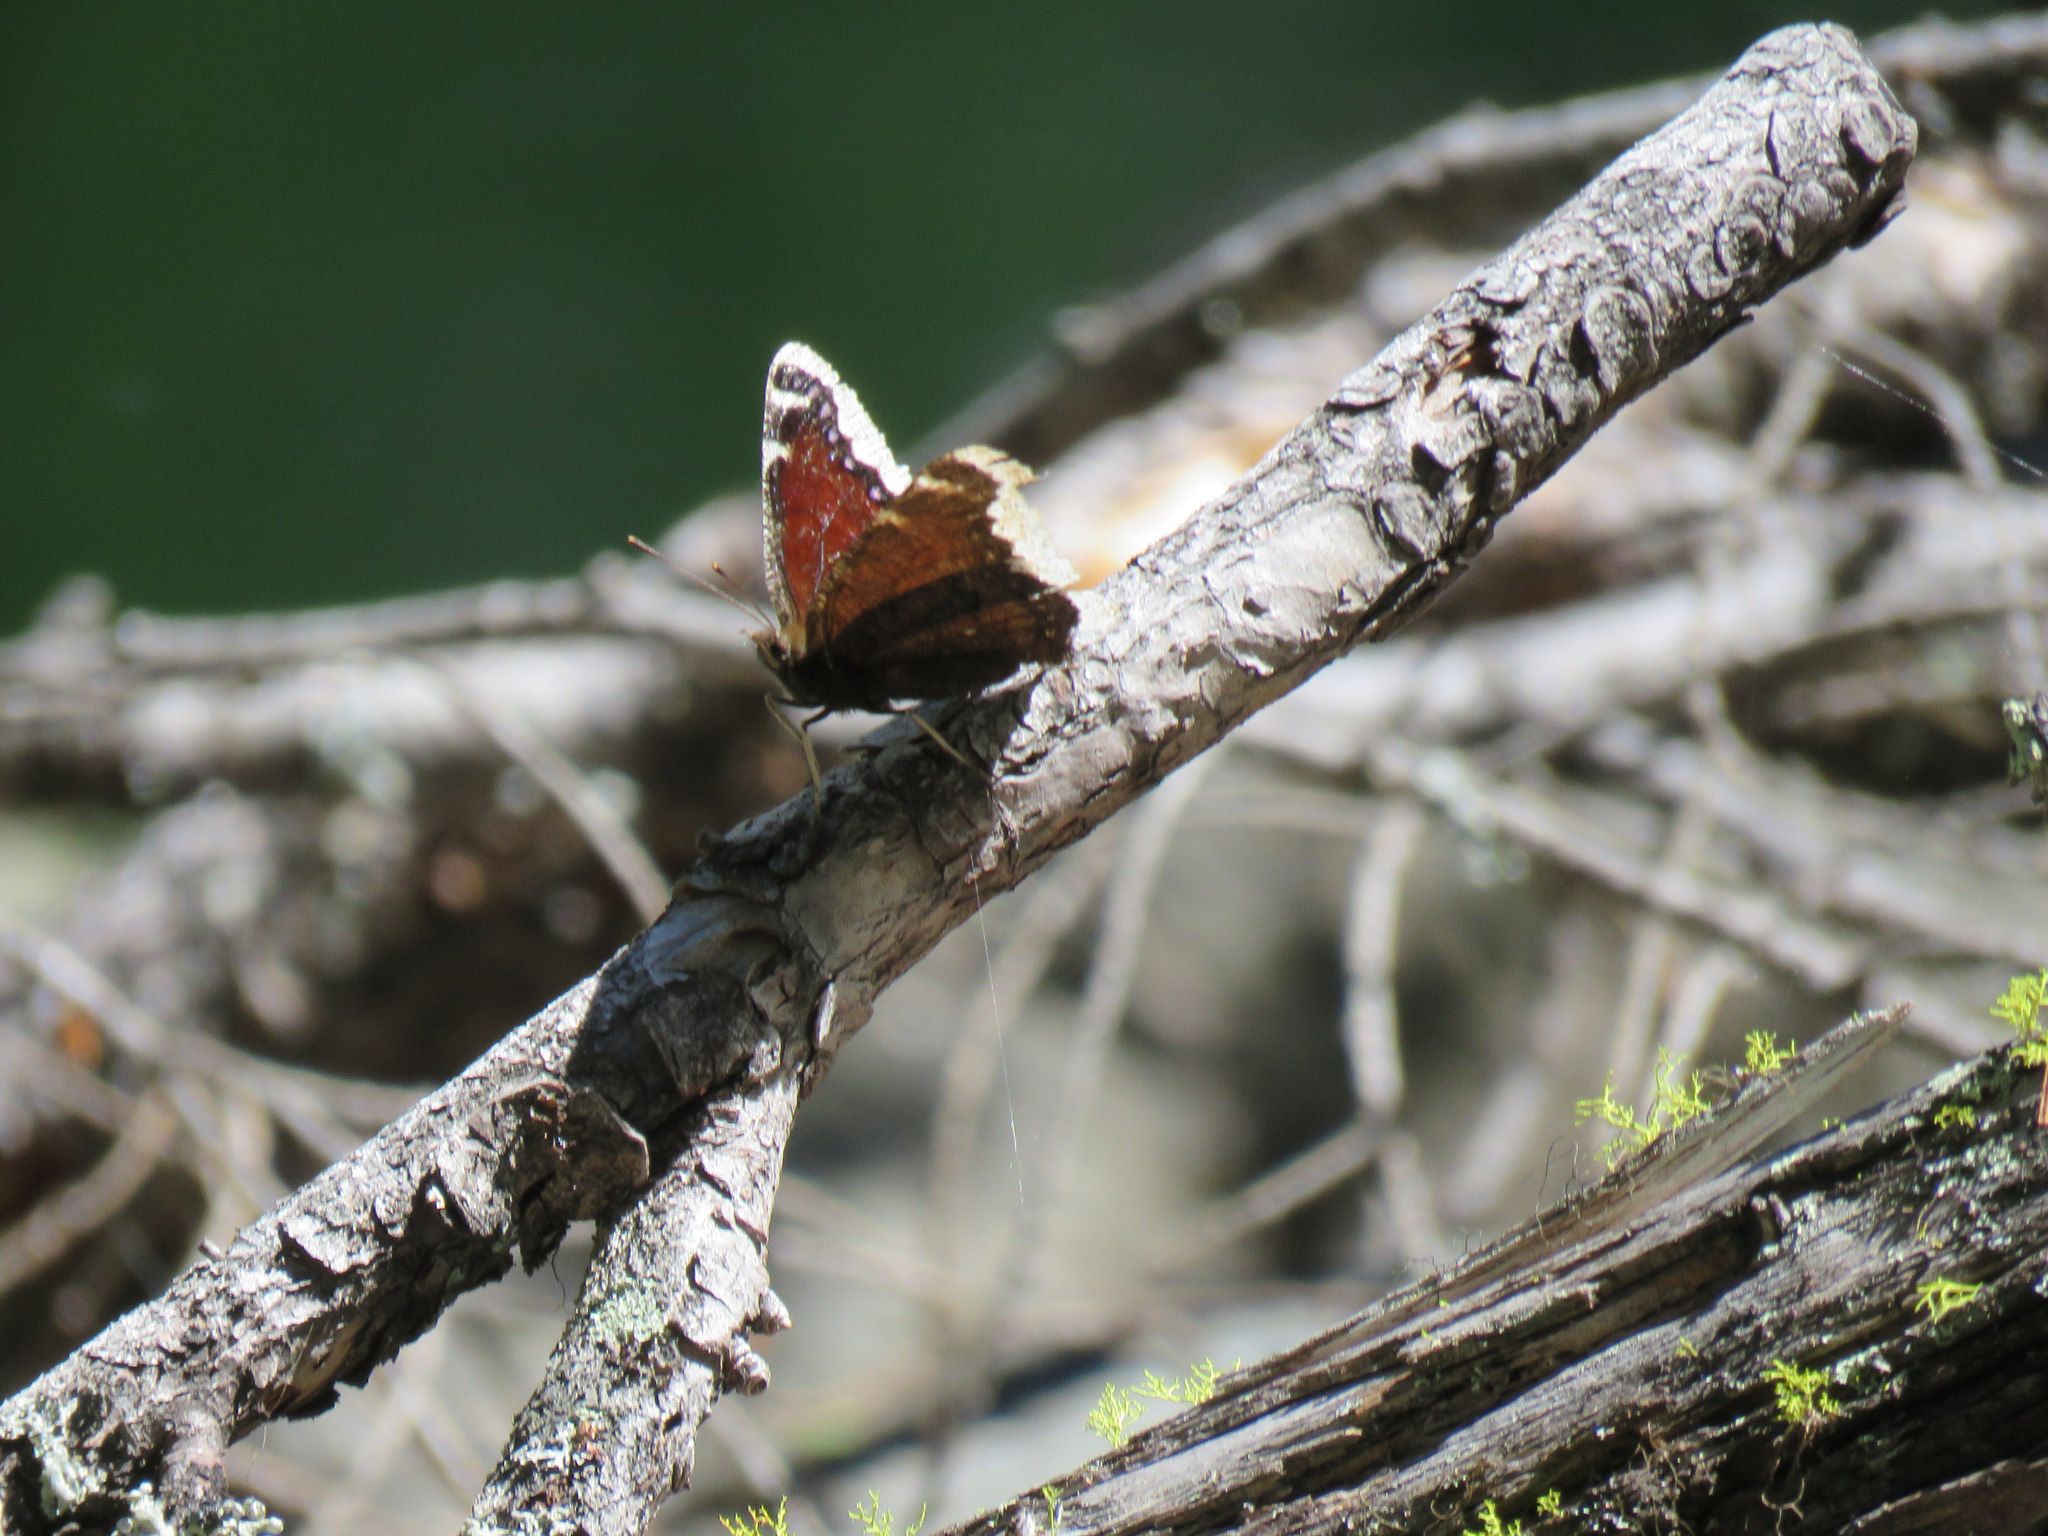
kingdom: Animalia
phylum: Arthropoda
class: Insecta
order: Lepidoptera
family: Nymphalidae
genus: Nymphalis
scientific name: Nymphalis antiopa
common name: Camberwell beauty
